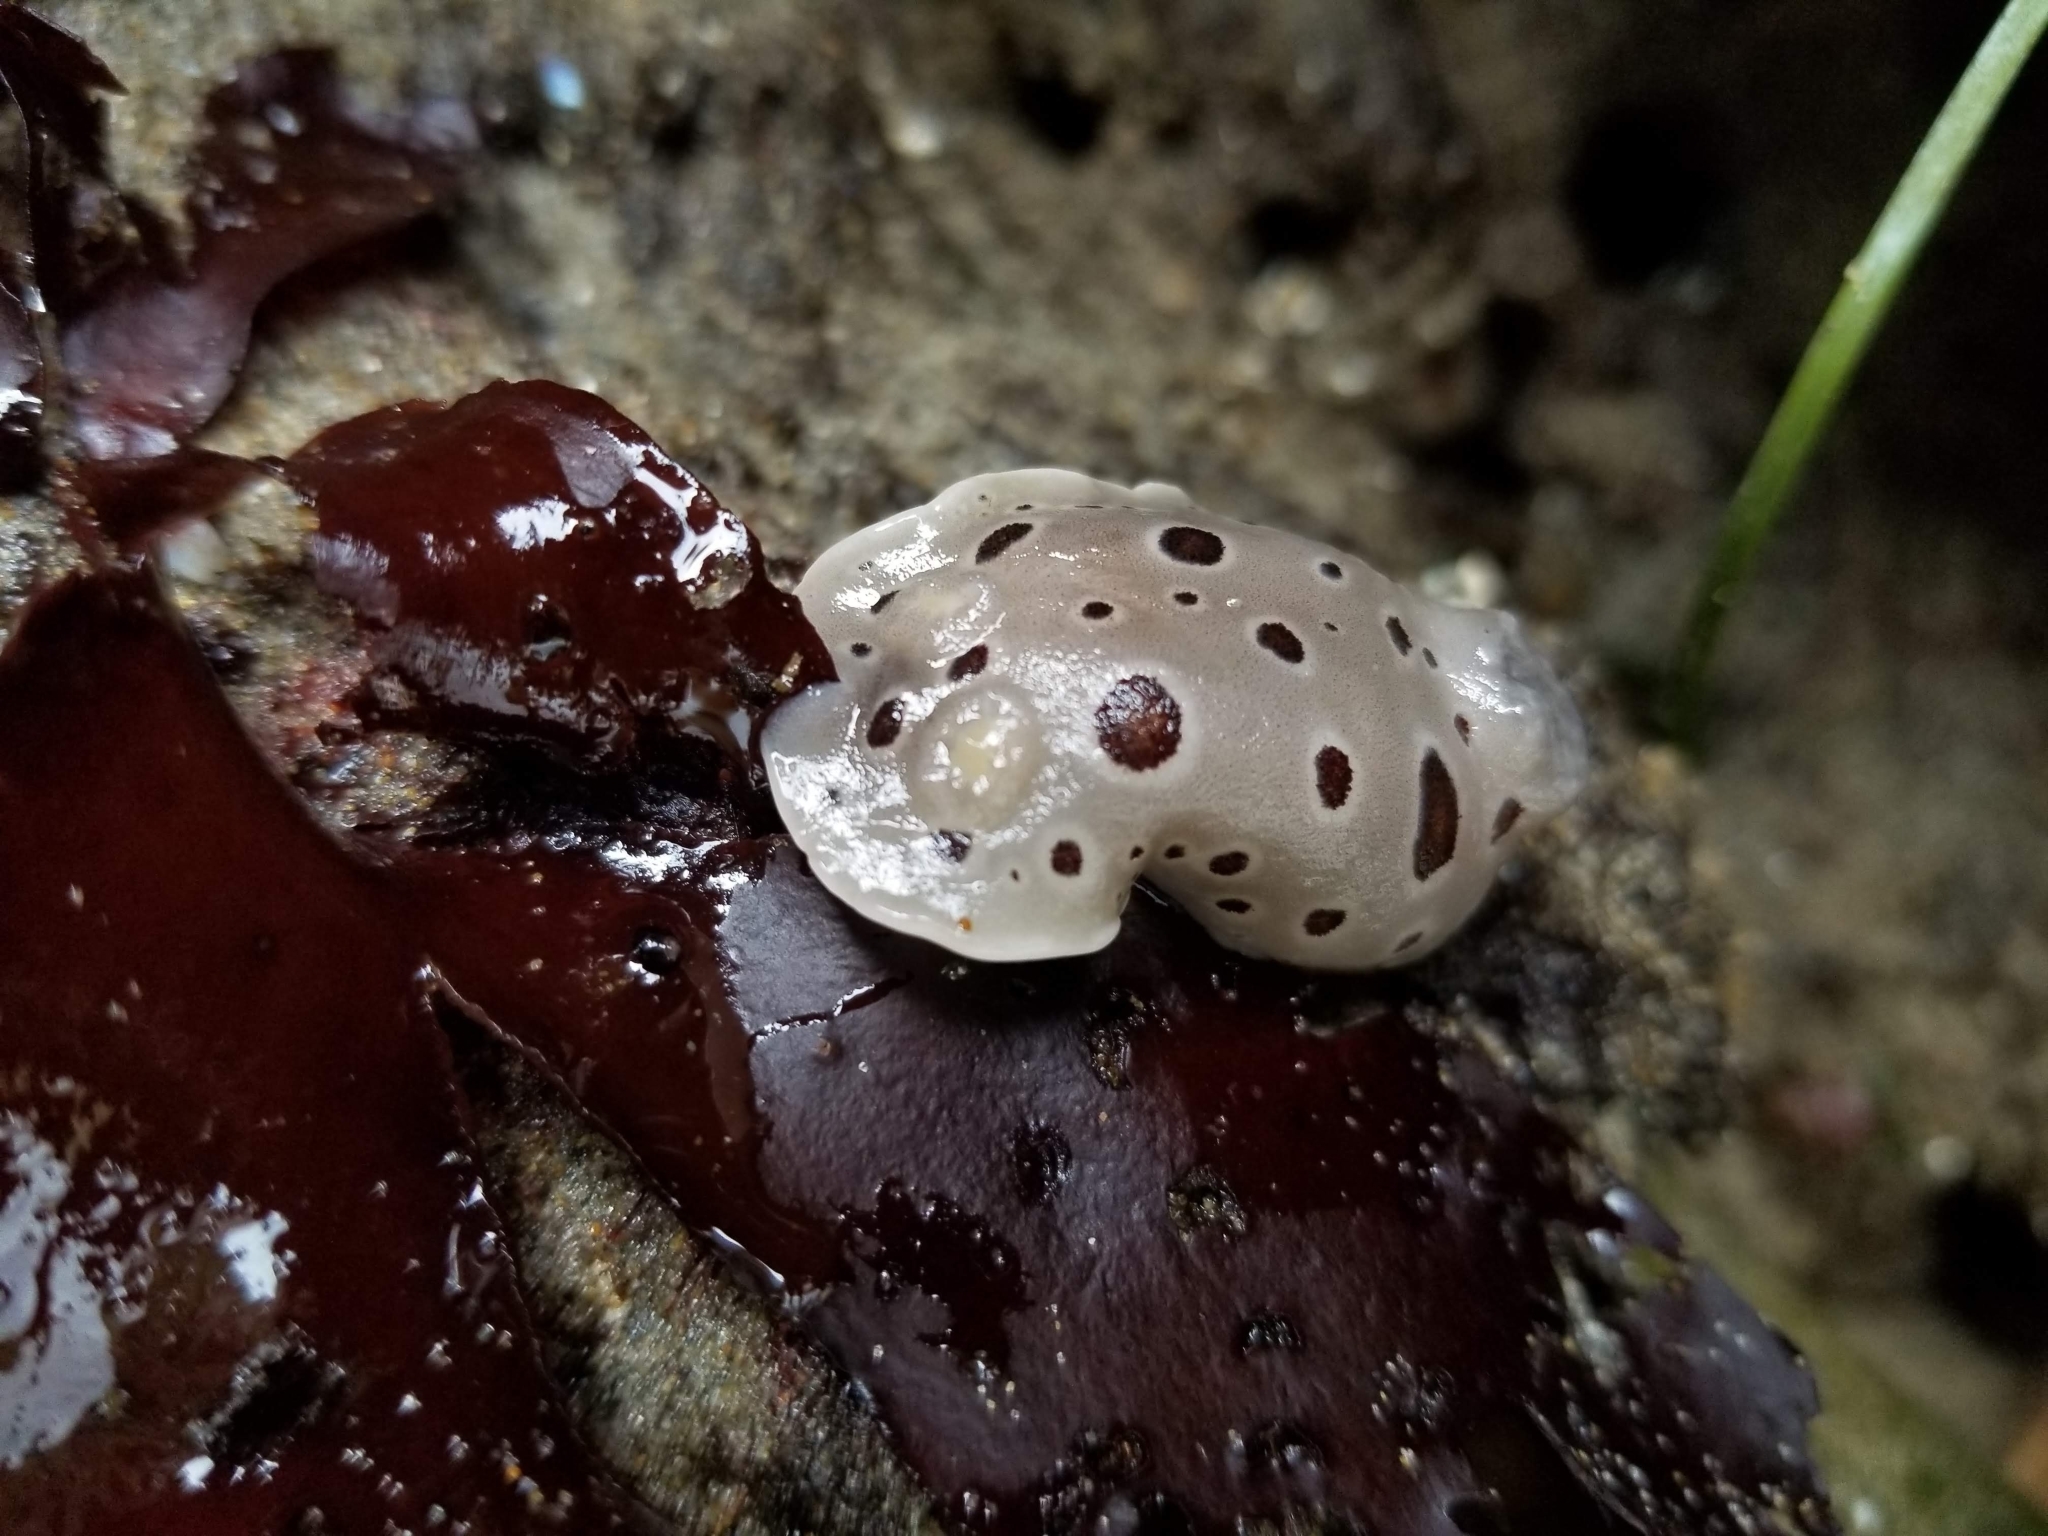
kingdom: Animalia
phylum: Mollusca
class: Gastropoda
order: Nudibranchia
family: Discodorididae
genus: Diaulula
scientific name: Diaulula odonoghuei
